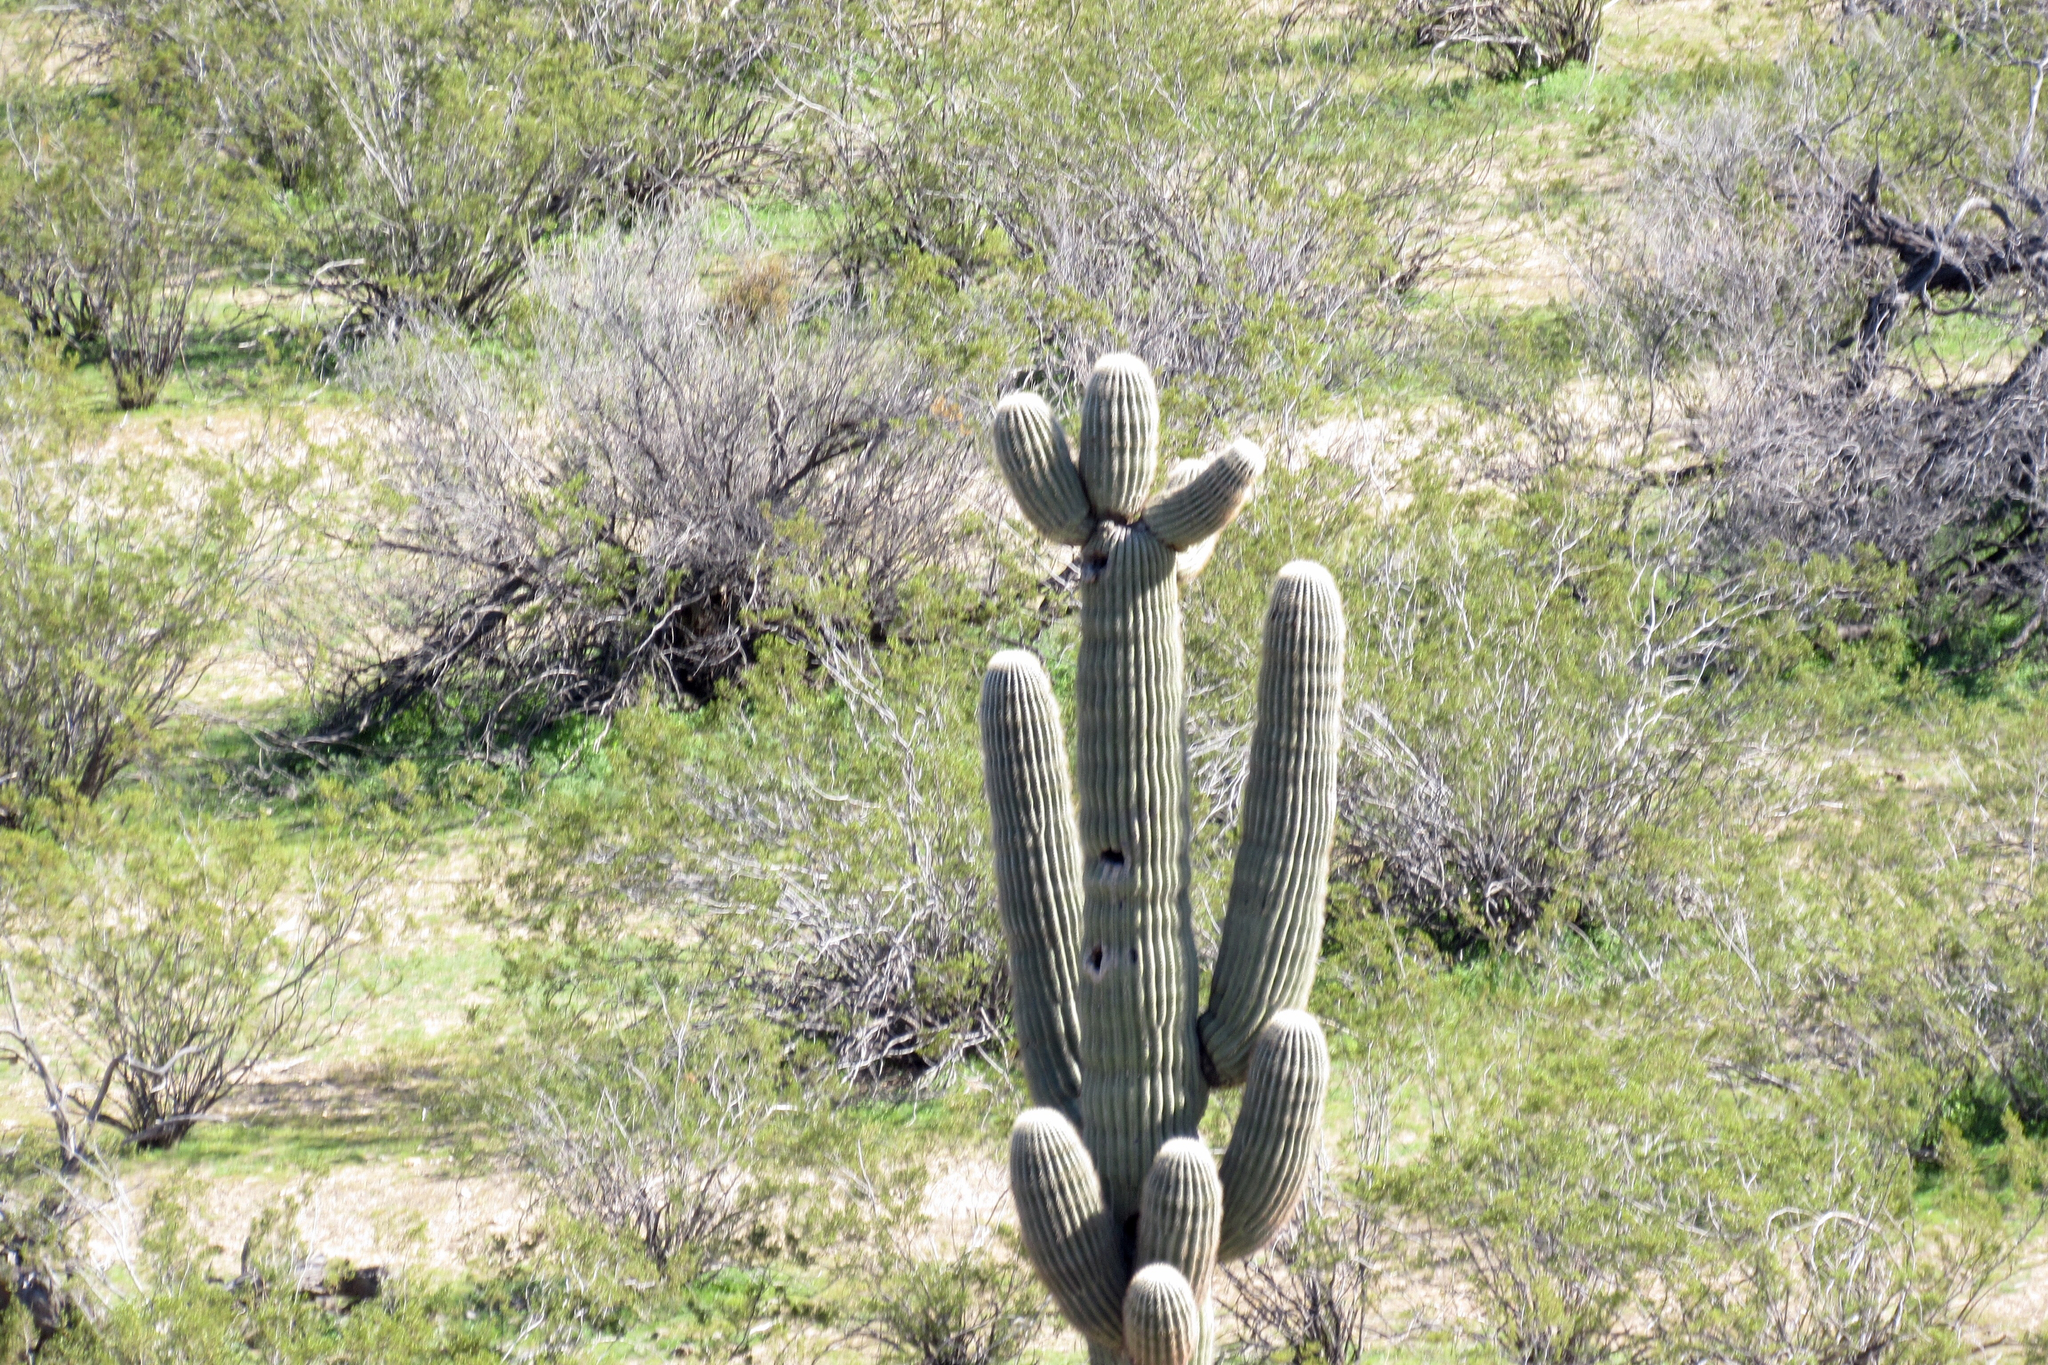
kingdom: Plantae
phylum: Tracheophyta
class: Magnoliopsida
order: Caryophyllales
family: Cactaceae
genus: Carnegiea
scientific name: Carnegiea gigantea
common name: Saguaro
